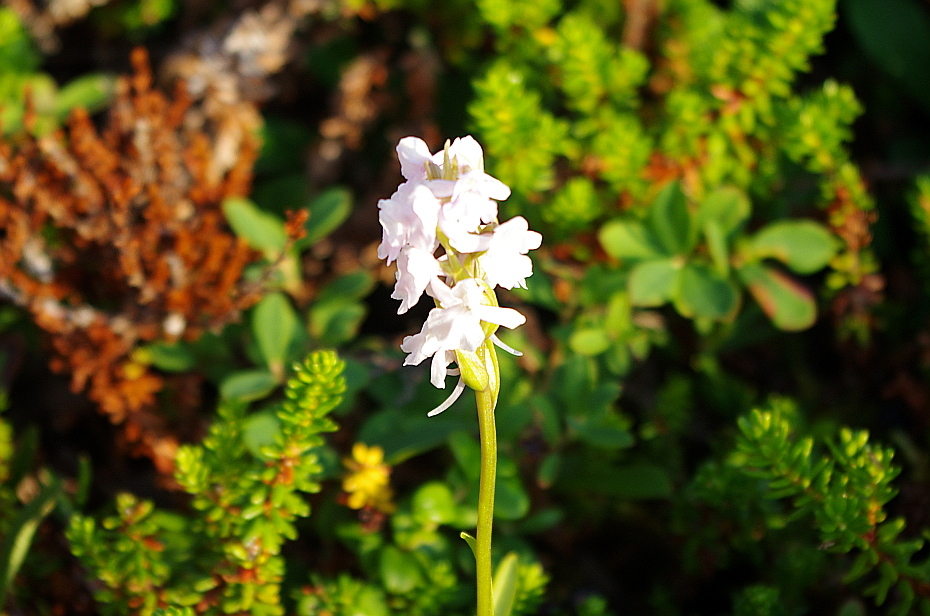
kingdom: Plantae
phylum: Tracheophyta
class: Liliopsida
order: Asparagales
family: Orchidaceae
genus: Gymnadenia
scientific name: Gymnadenia conopsea
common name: Fragrant orchid
